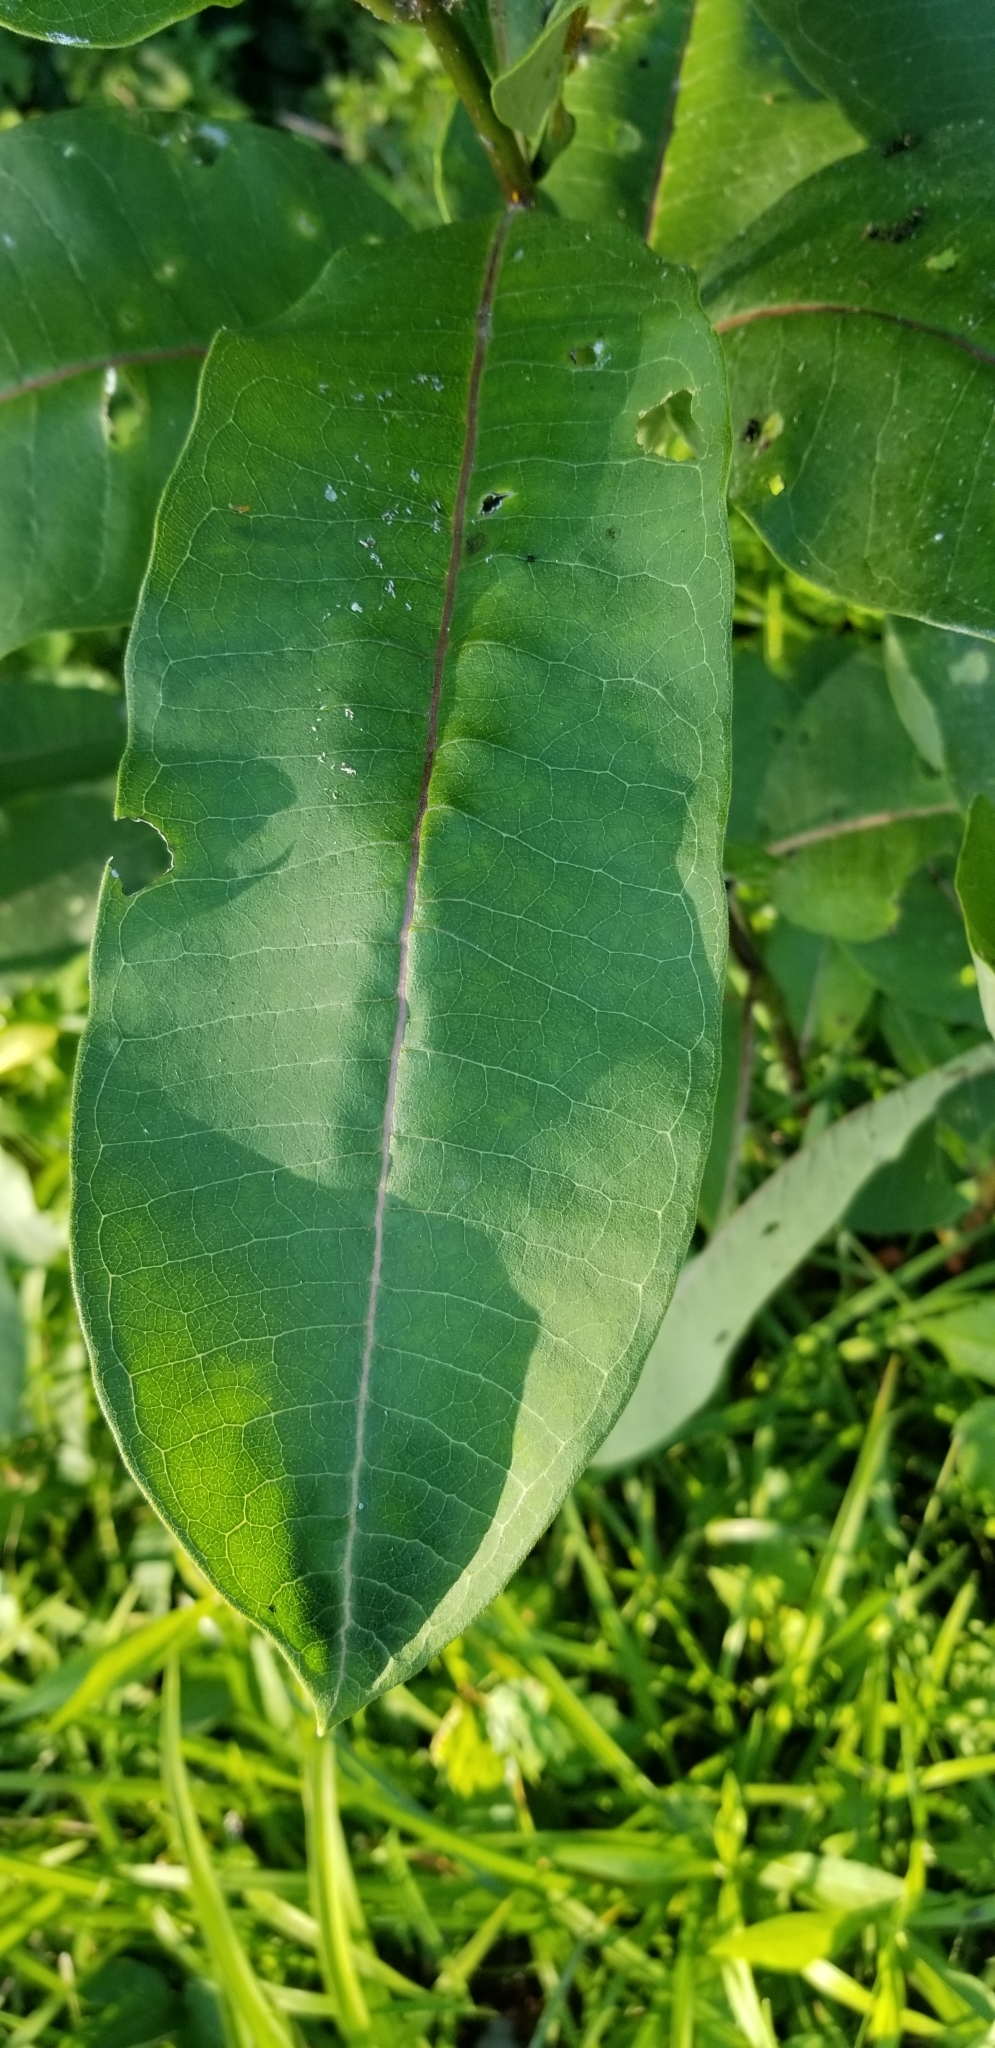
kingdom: Plantae
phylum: Tracheophyta
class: Magnoliopsida
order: Gentianales
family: Apocynaceae
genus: Asclepias
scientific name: Asclepias syriaca
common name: Common milkweed
